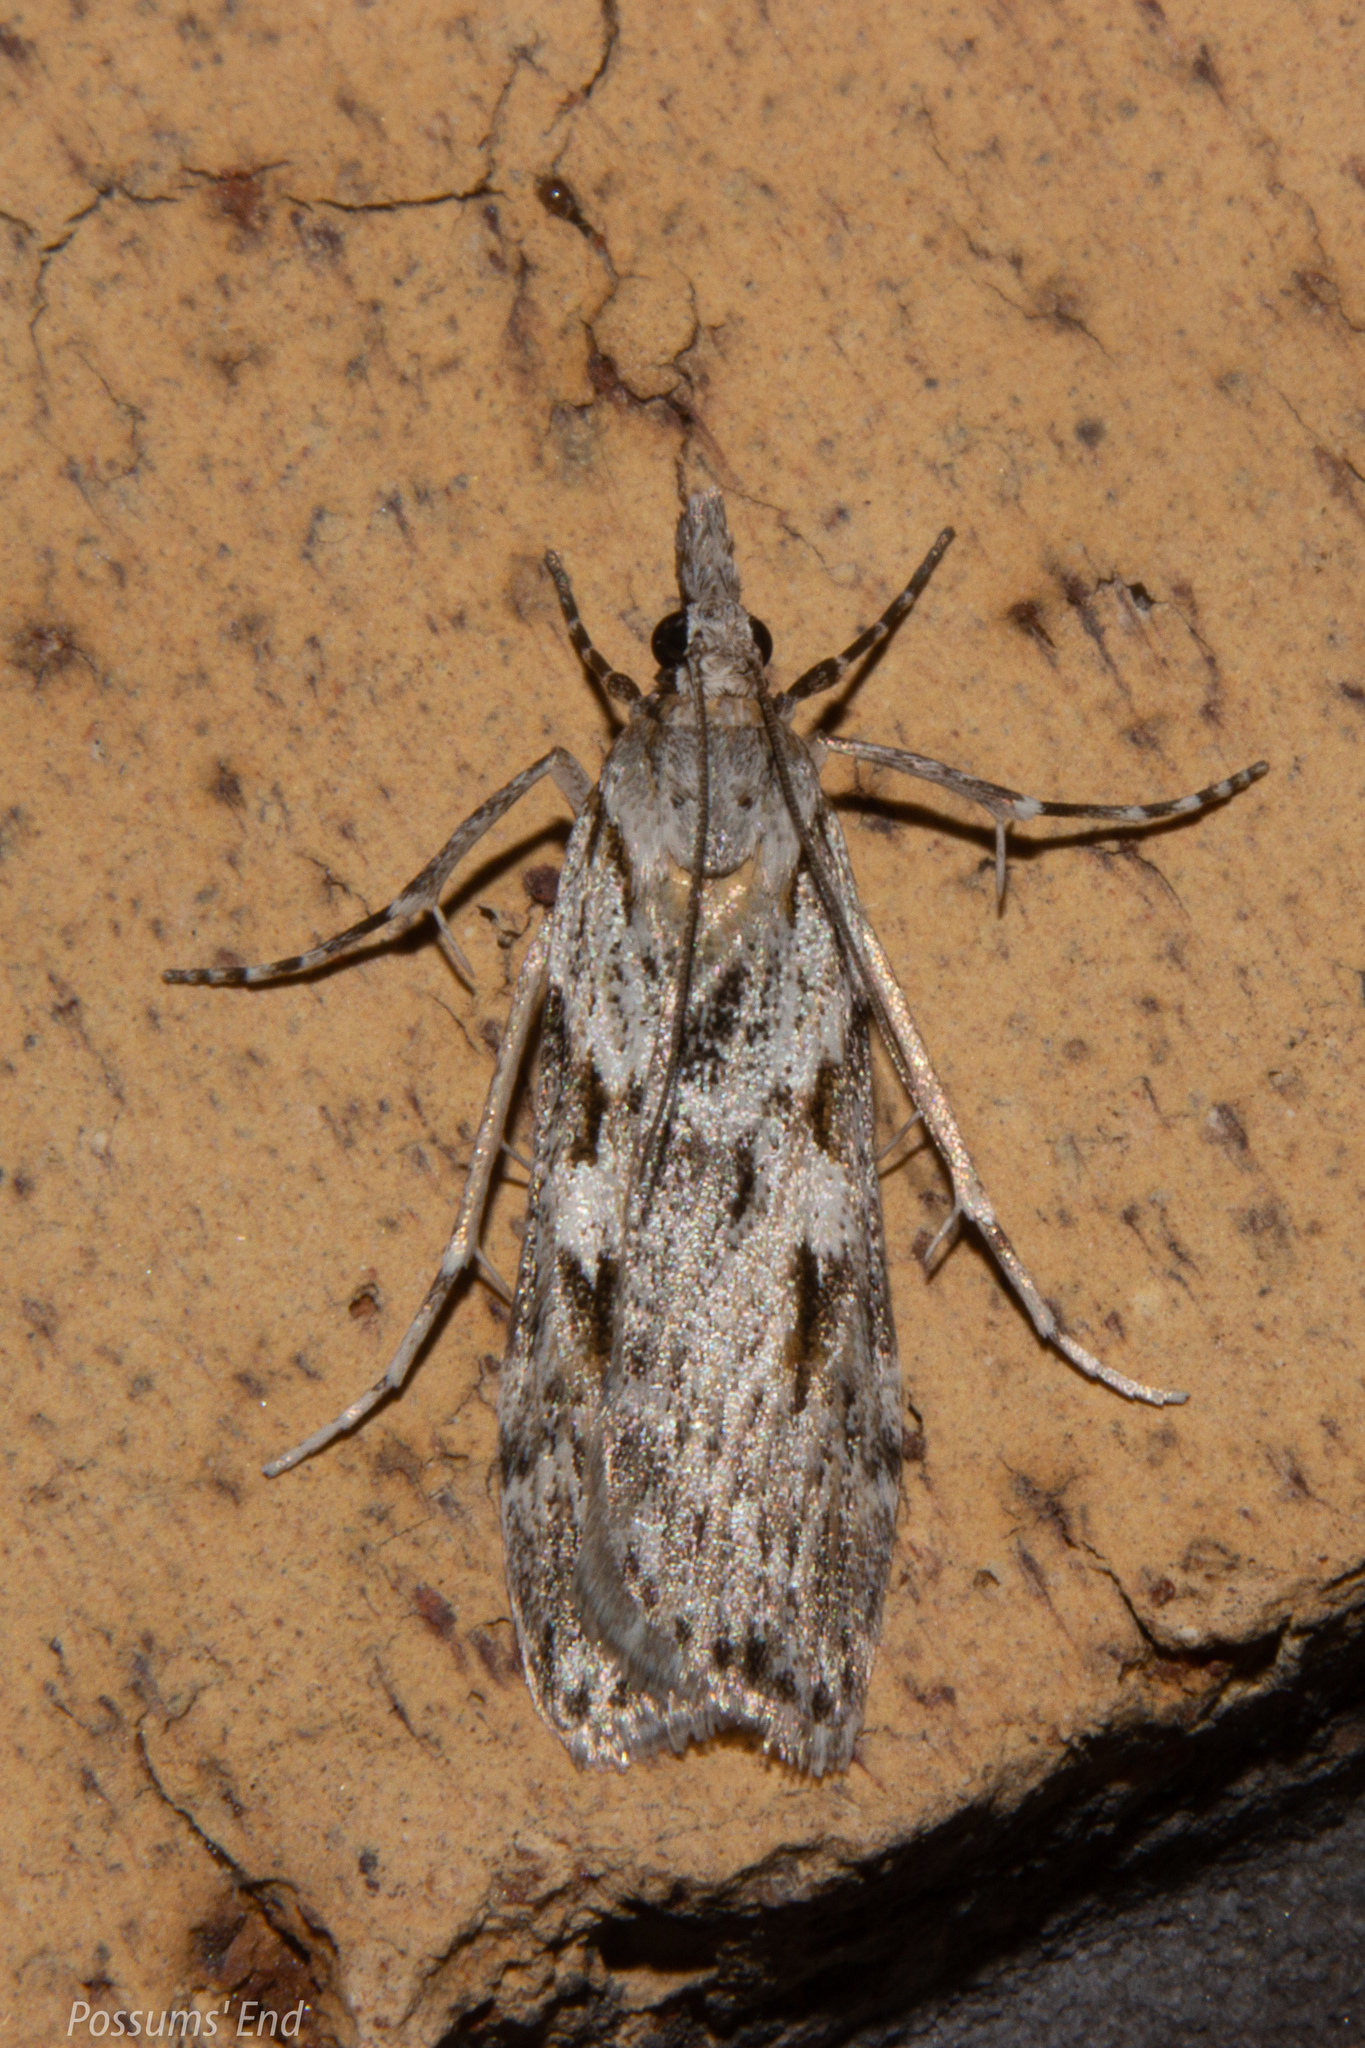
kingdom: Animalia
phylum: Arthropoda
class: Insecta
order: Lepidoptera
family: Crambidae
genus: Scoparia
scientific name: Scoparia halopis
